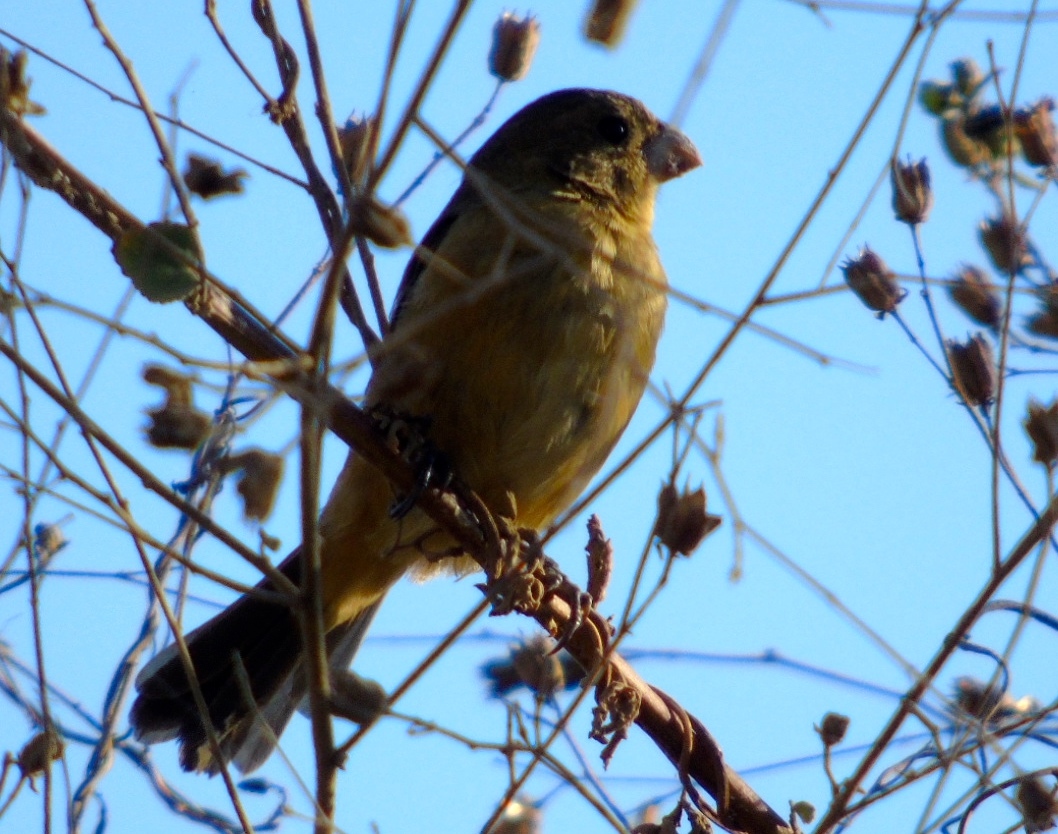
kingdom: Animalia
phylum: Chordata
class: Aves
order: Passeriformes
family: Thraupidae
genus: Sporophila
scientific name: Sporophila torqueola
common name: White-collared seedeater
